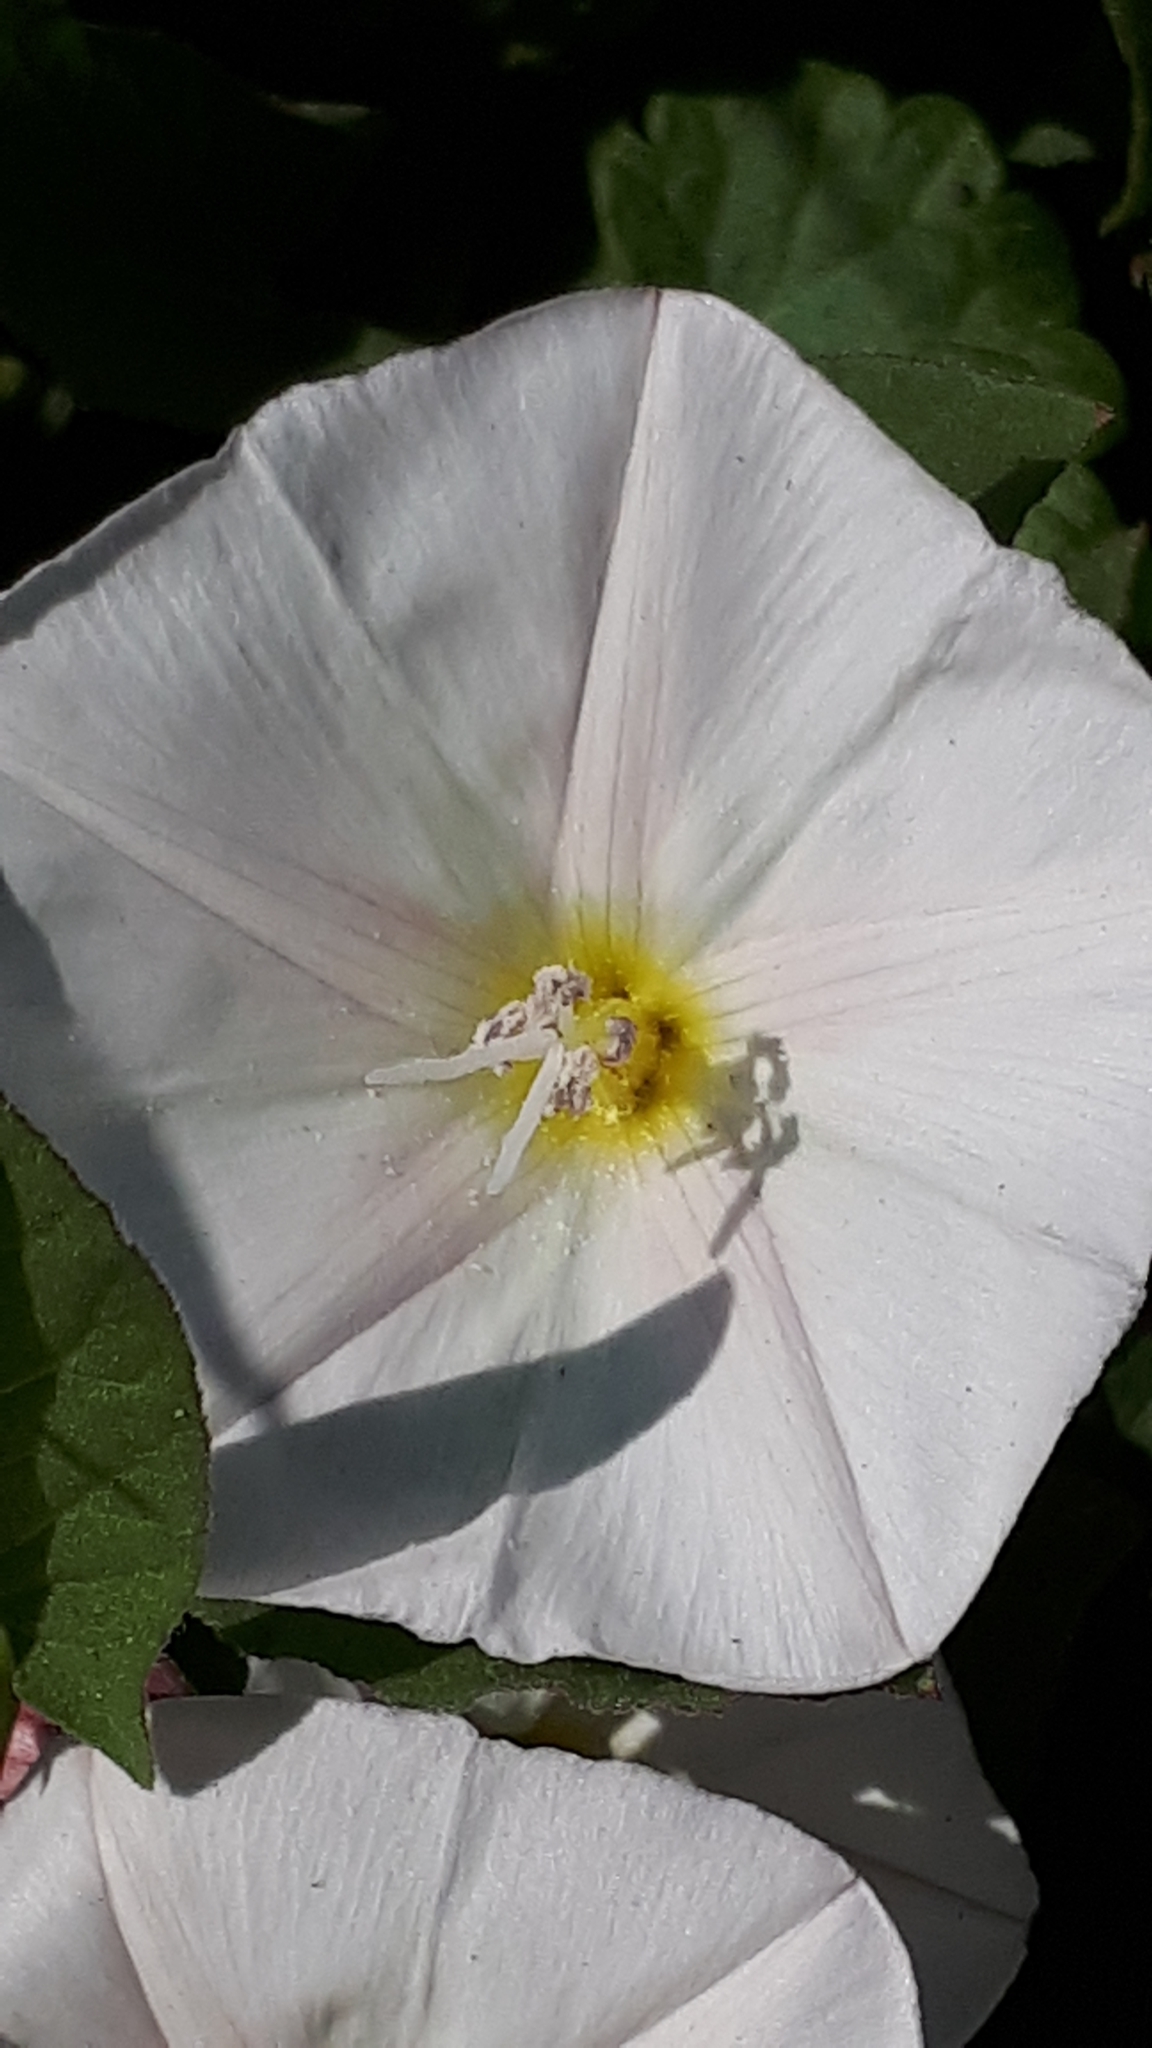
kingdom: Plantae
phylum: Tracheophyta
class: Magnoliopsida
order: Solanales
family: Convolvulaceae
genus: Convolvulus
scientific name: Convolvulus arvensis
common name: Field bindweed
